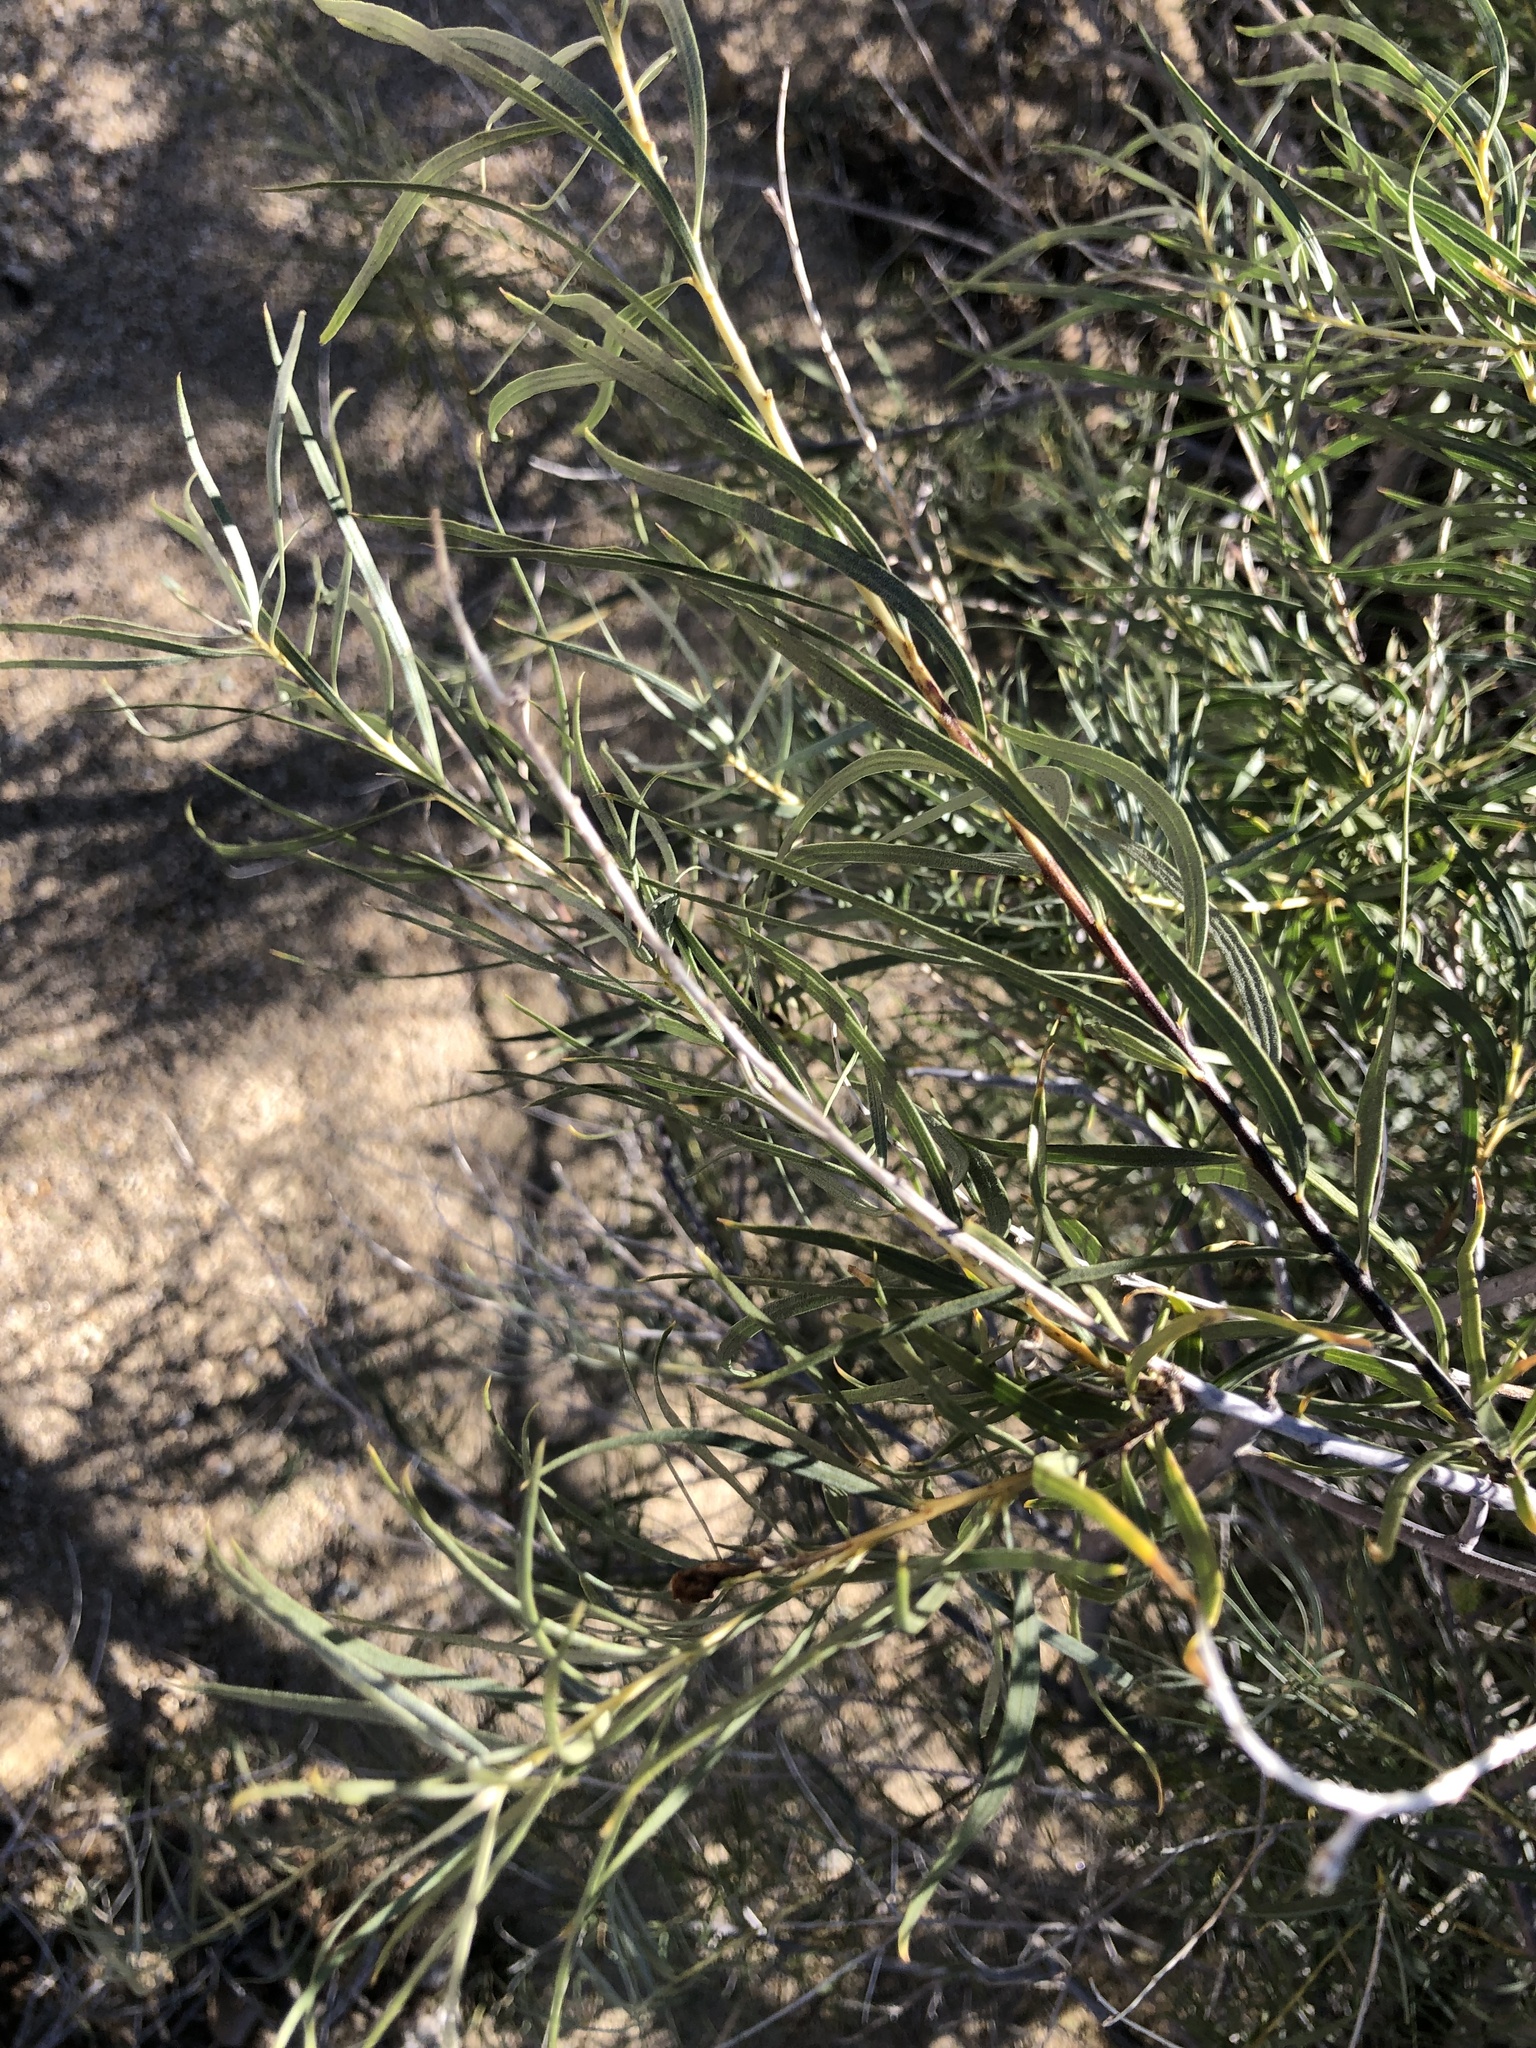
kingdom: Plantae
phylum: Tracheophyta
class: Magnoliopsida
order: Lamiales
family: Bignoniaceae
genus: Chilopsis
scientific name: Chilopsis linearis
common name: Desert-willow
